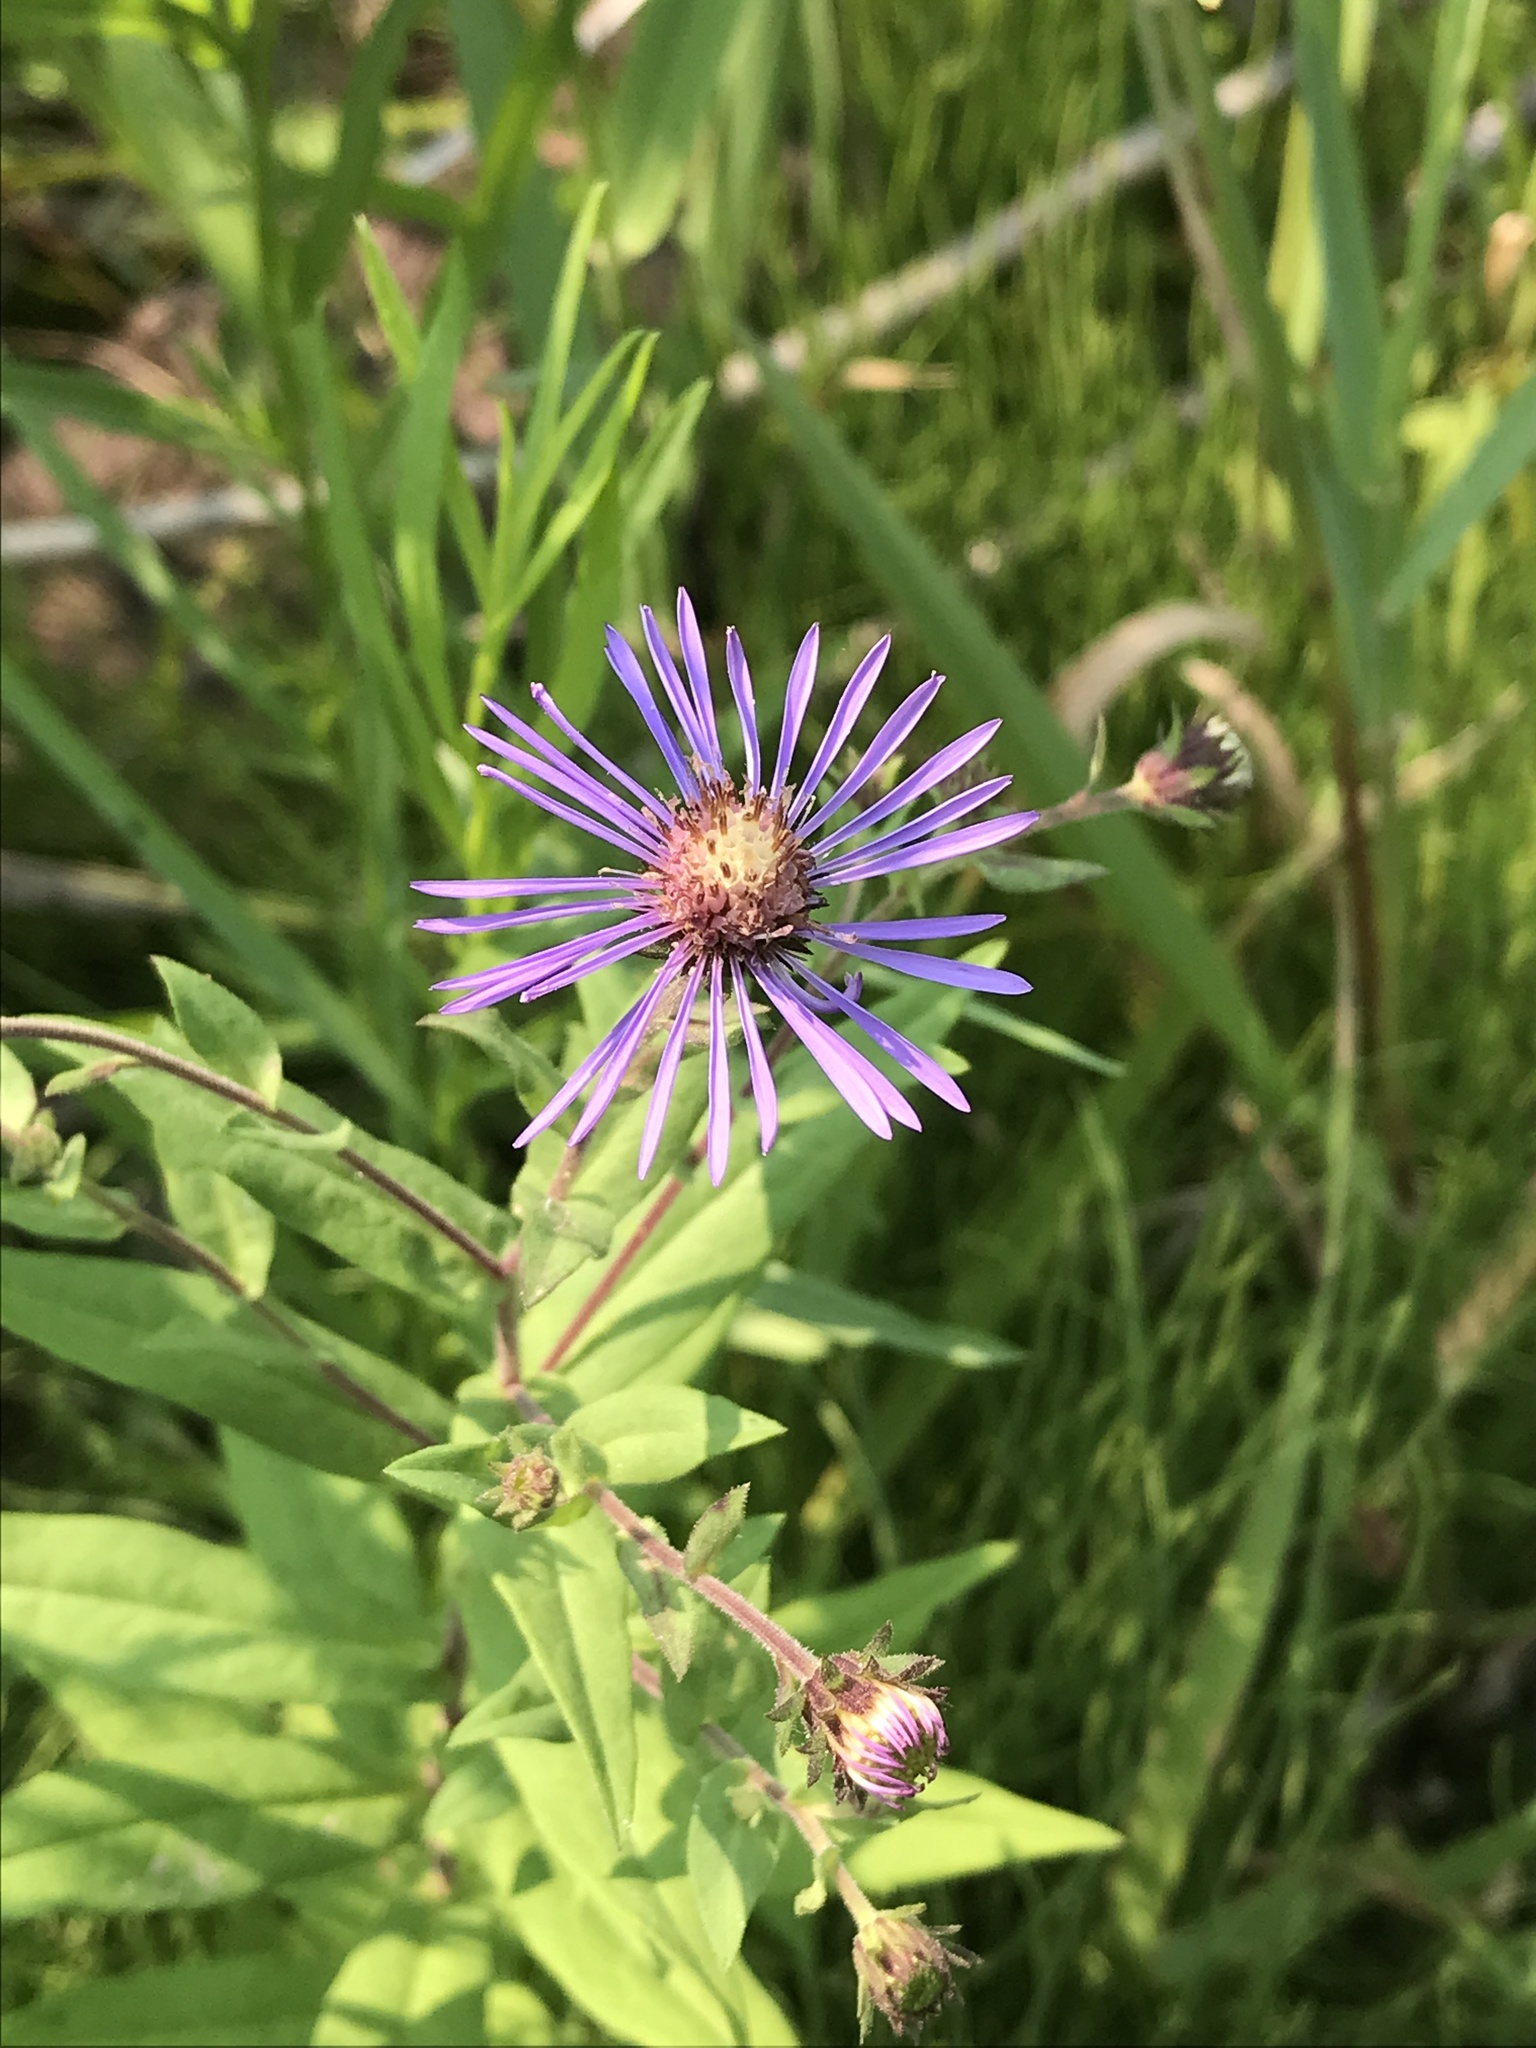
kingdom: Plantae
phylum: Tracheophyta
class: Magnoliopsida
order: Asterales
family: Asteraceae
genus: Canadanthus
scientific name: Canadanthus modestus
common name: Great northern aster
